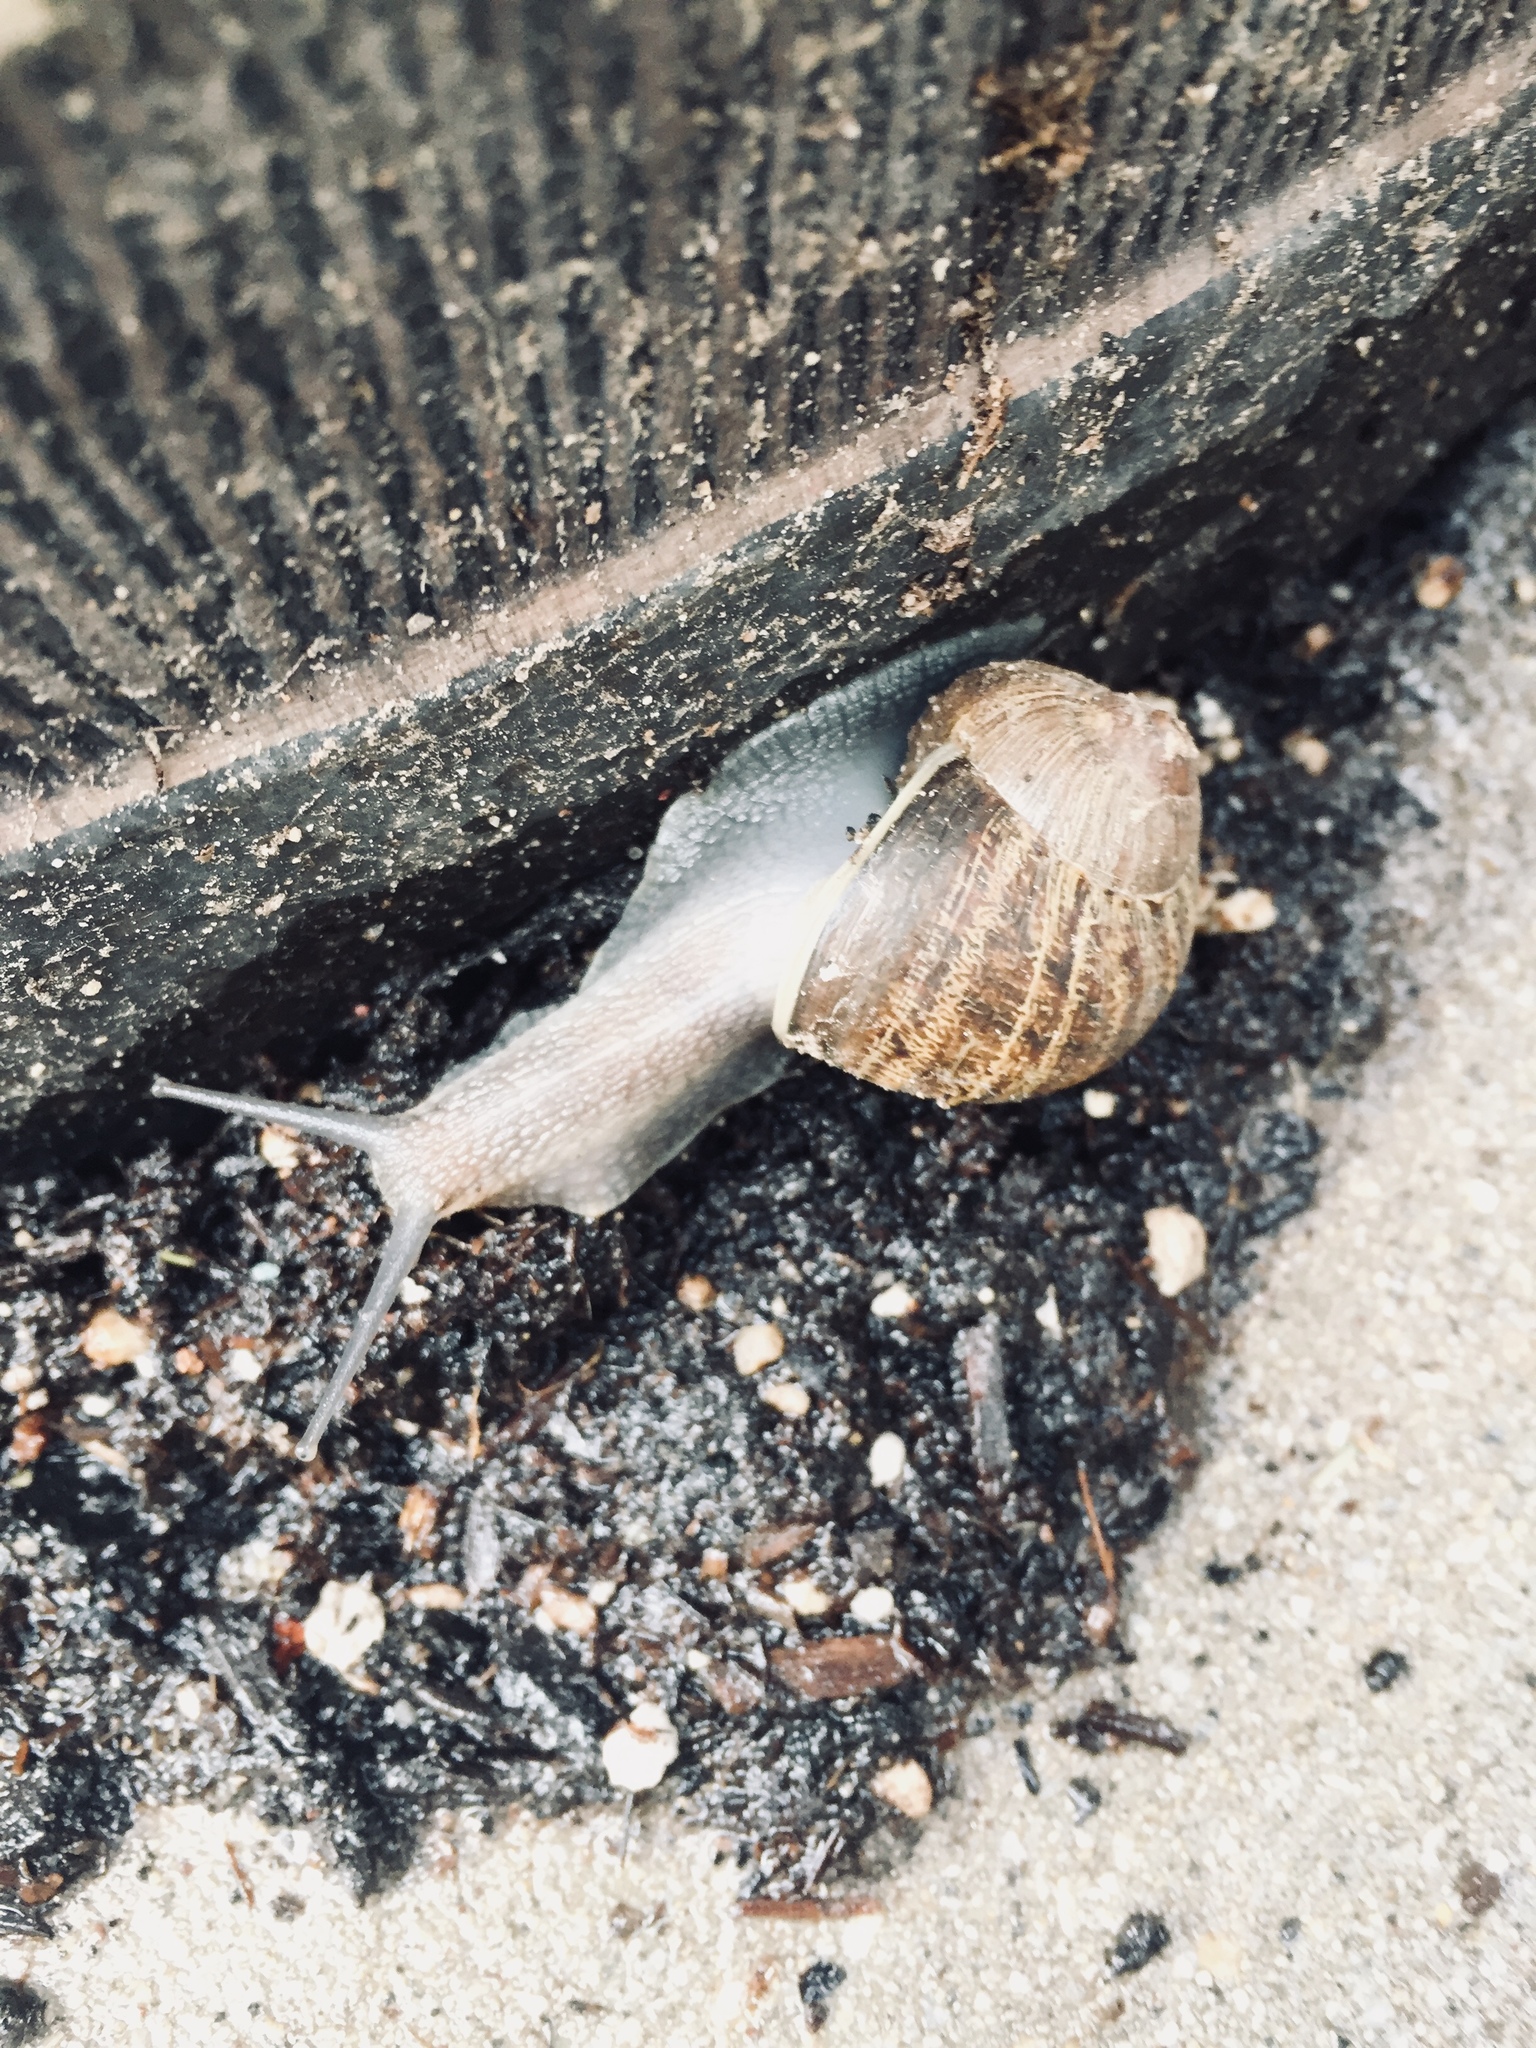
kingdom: Animalia
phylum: Mollusca
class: Gastropoda
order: Stylommatophora
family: Helicidae
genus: Cornu
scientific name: Cornu aspersum
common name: Brown garden snail
